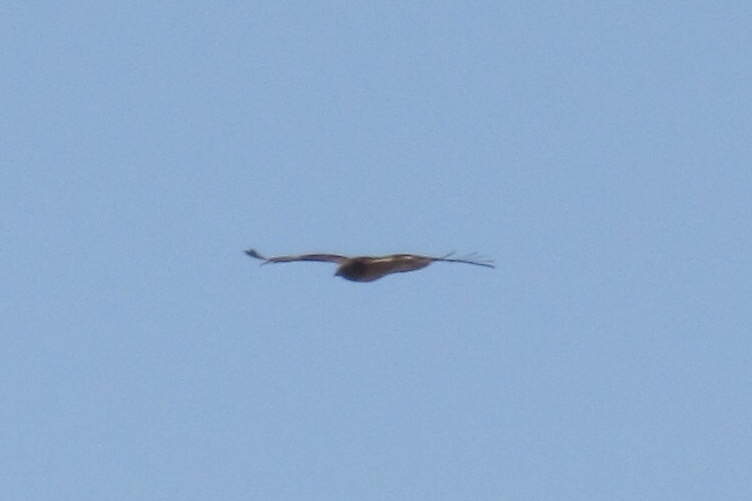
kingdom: Animalia
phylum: Chordata
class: Aves
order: Accipitriformes
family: Accipitridae
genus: Buteo
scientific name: Buteo jamaicensis
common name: Red-tailed hawk
